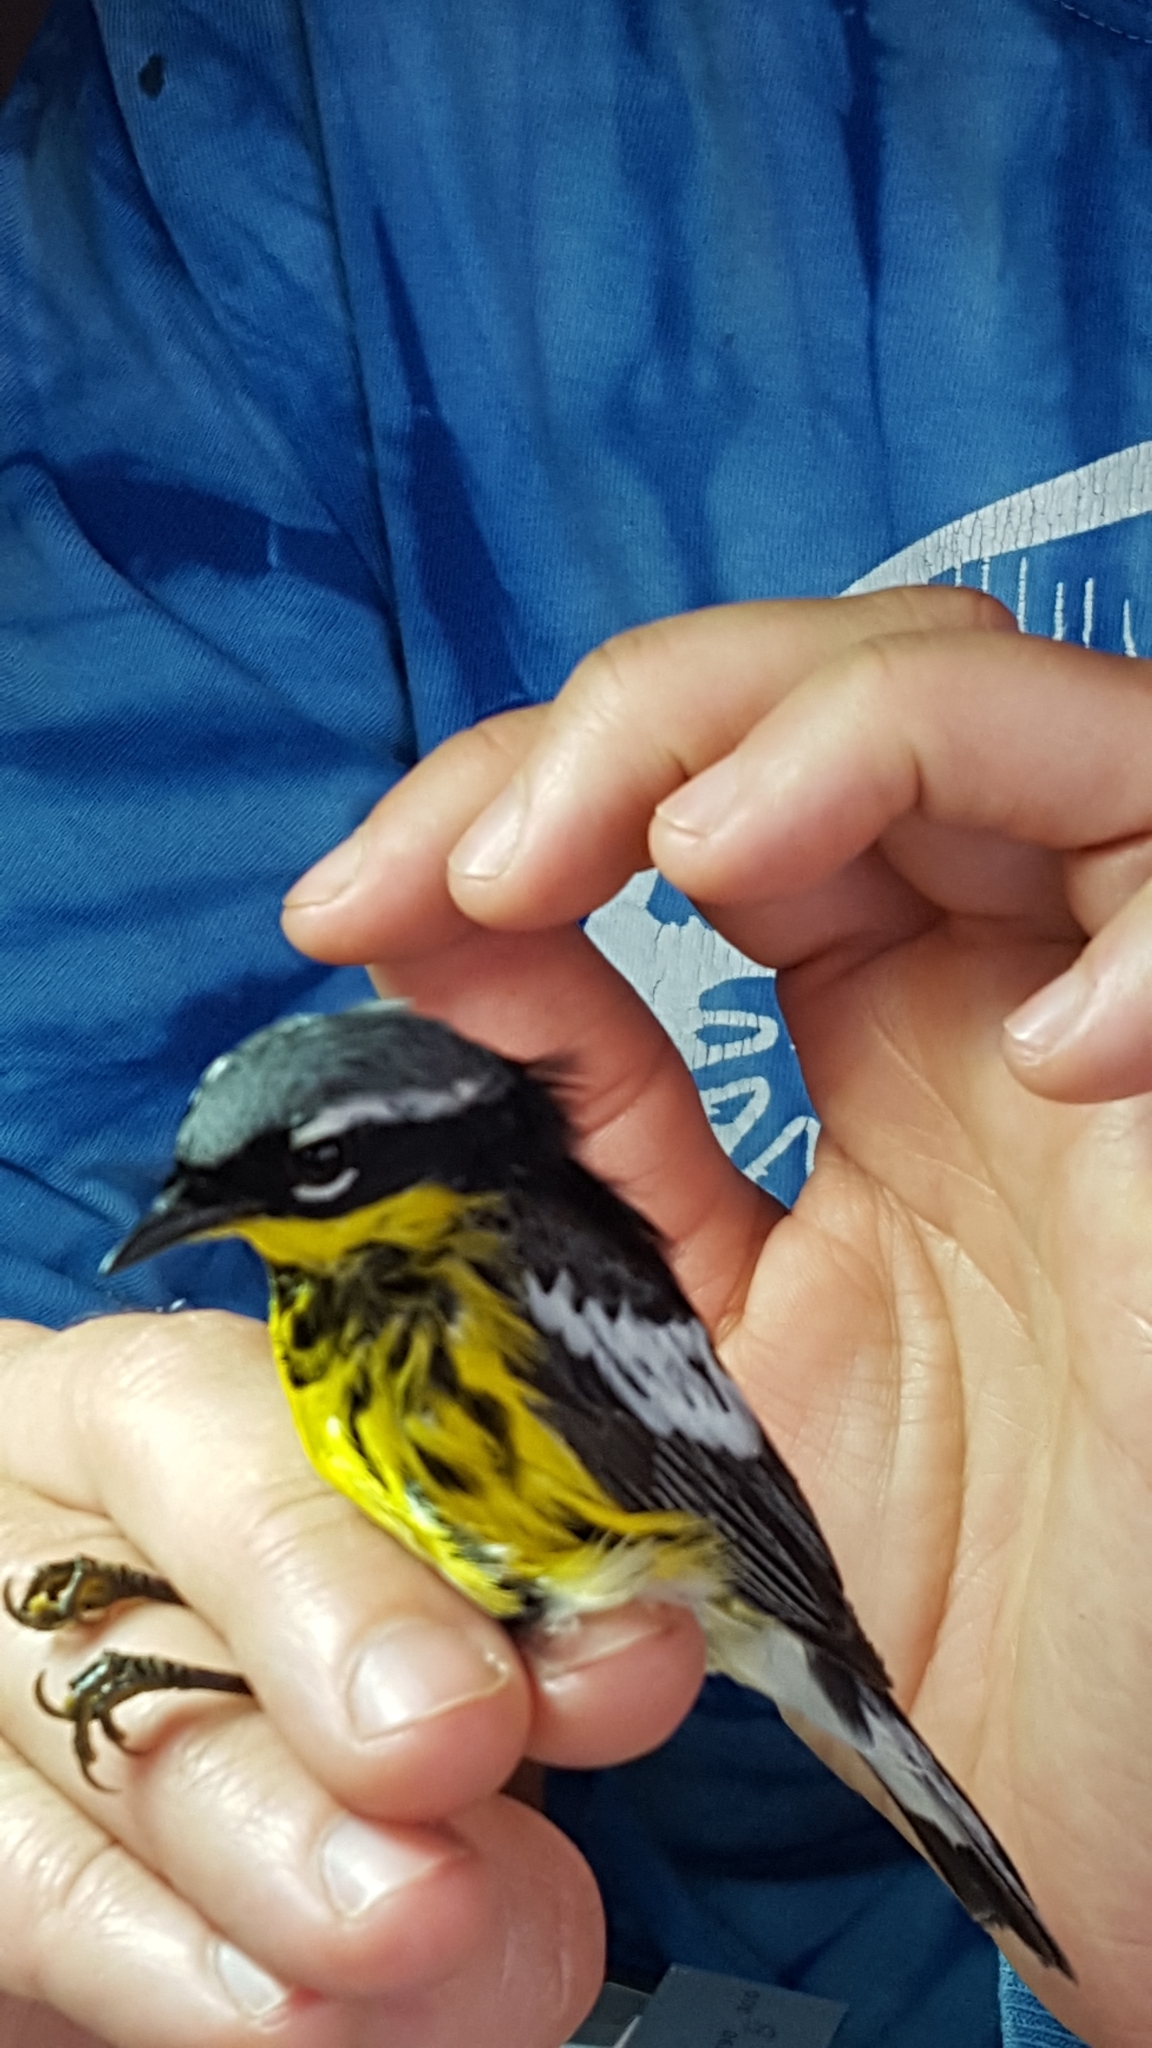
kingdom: Animalia
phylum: Chordata
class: Aves
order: Passeriformes
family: Parulidae
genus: Setophaga
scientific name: Setophaga magnolia
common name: Magnolia warbler
